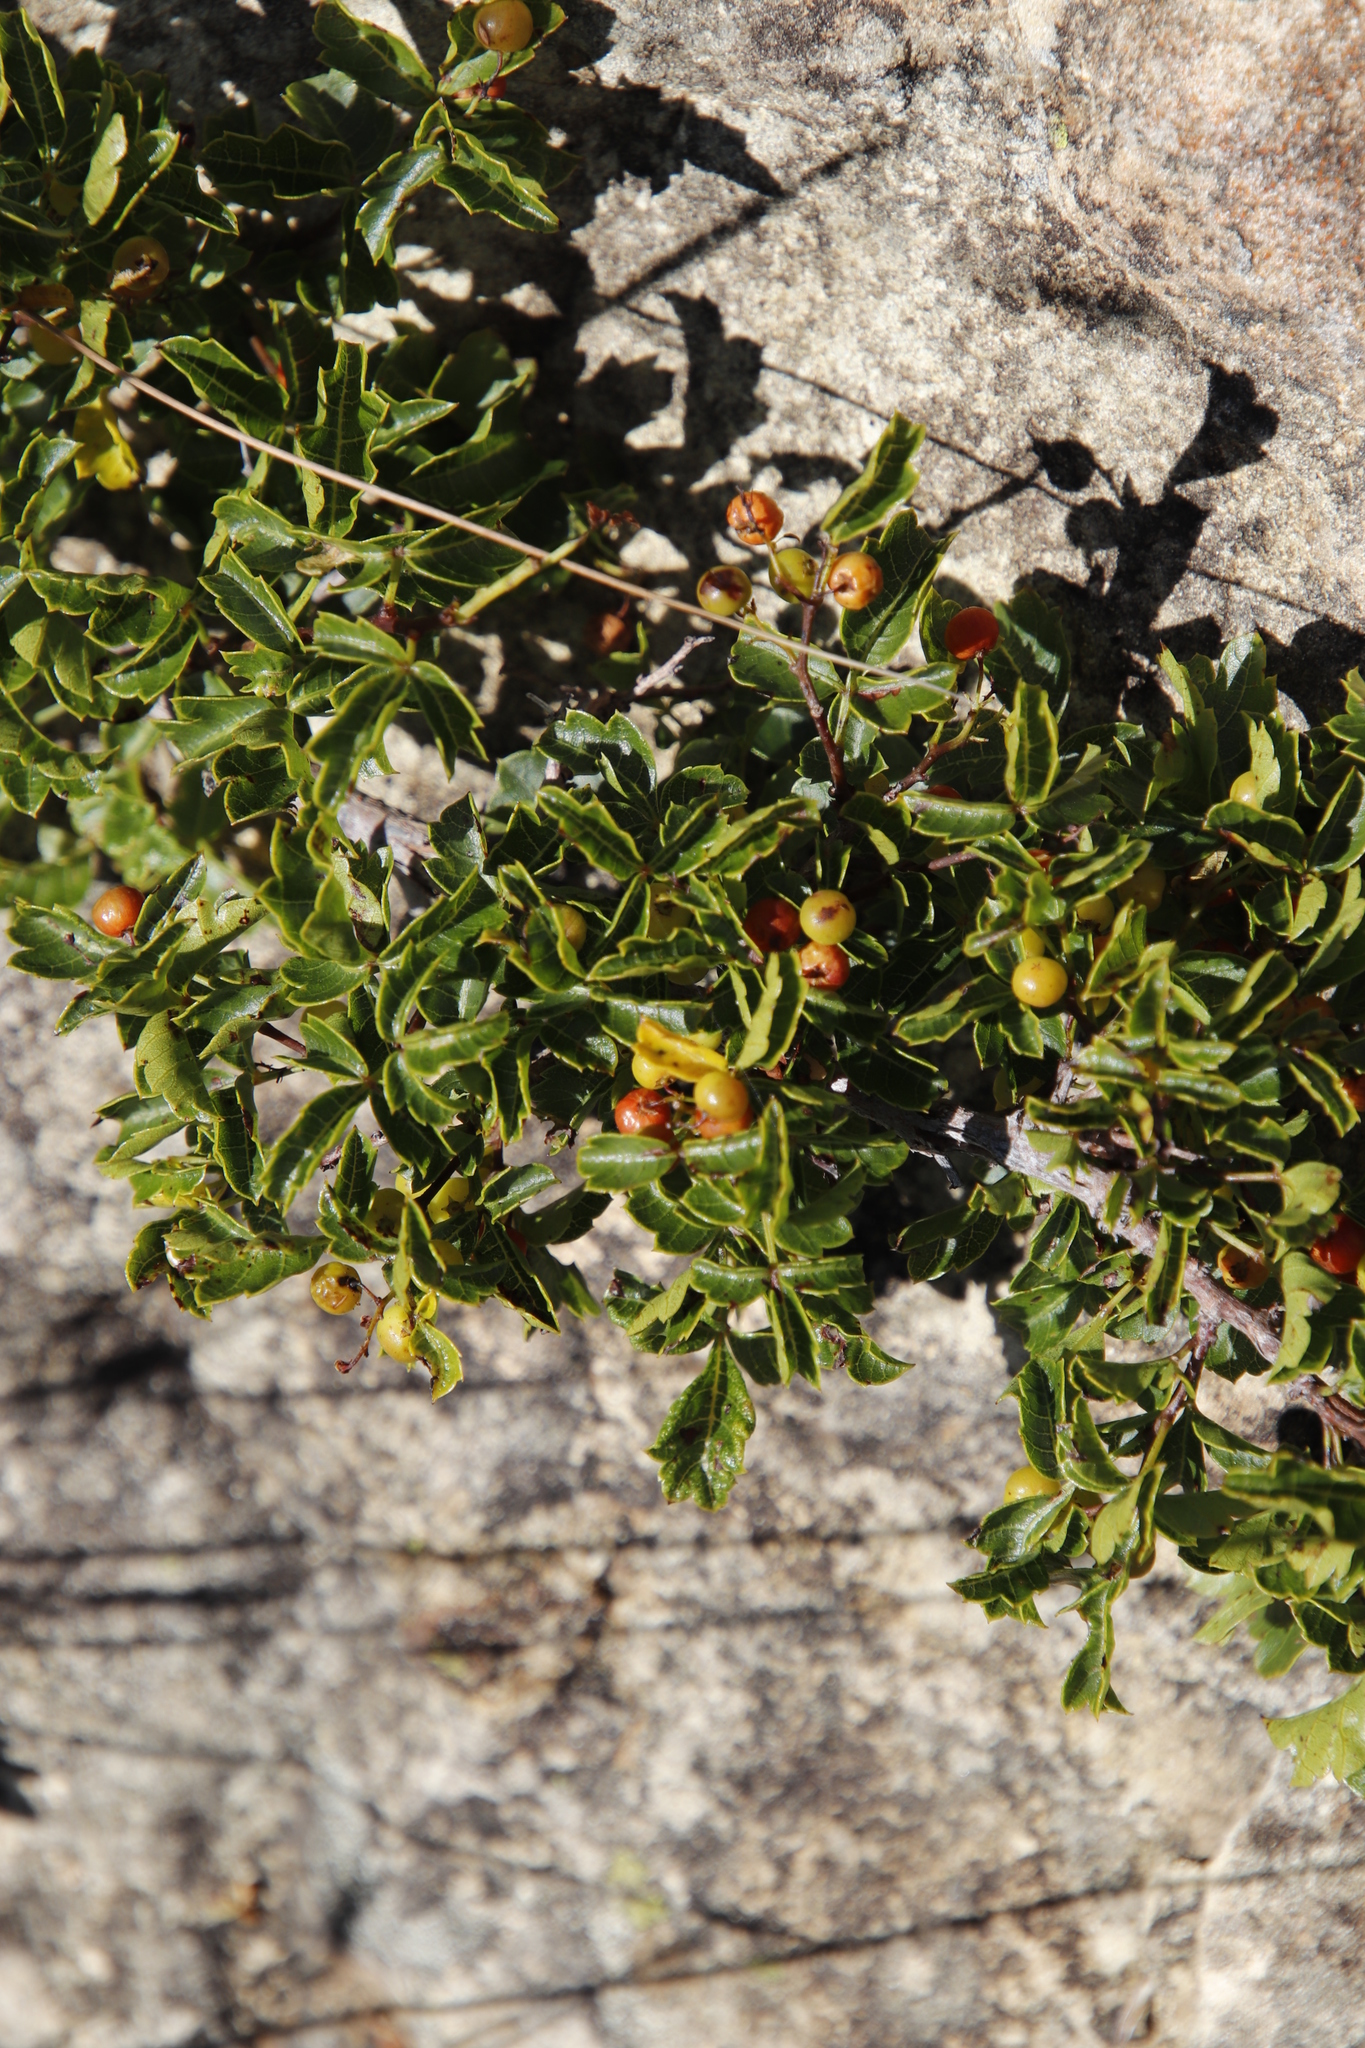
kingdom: Plantae
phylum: Tracheophyta
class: Magnoliopsida
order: Sapindales
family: Anacardiaceae
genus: Searsia
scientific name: Searsia dentata
